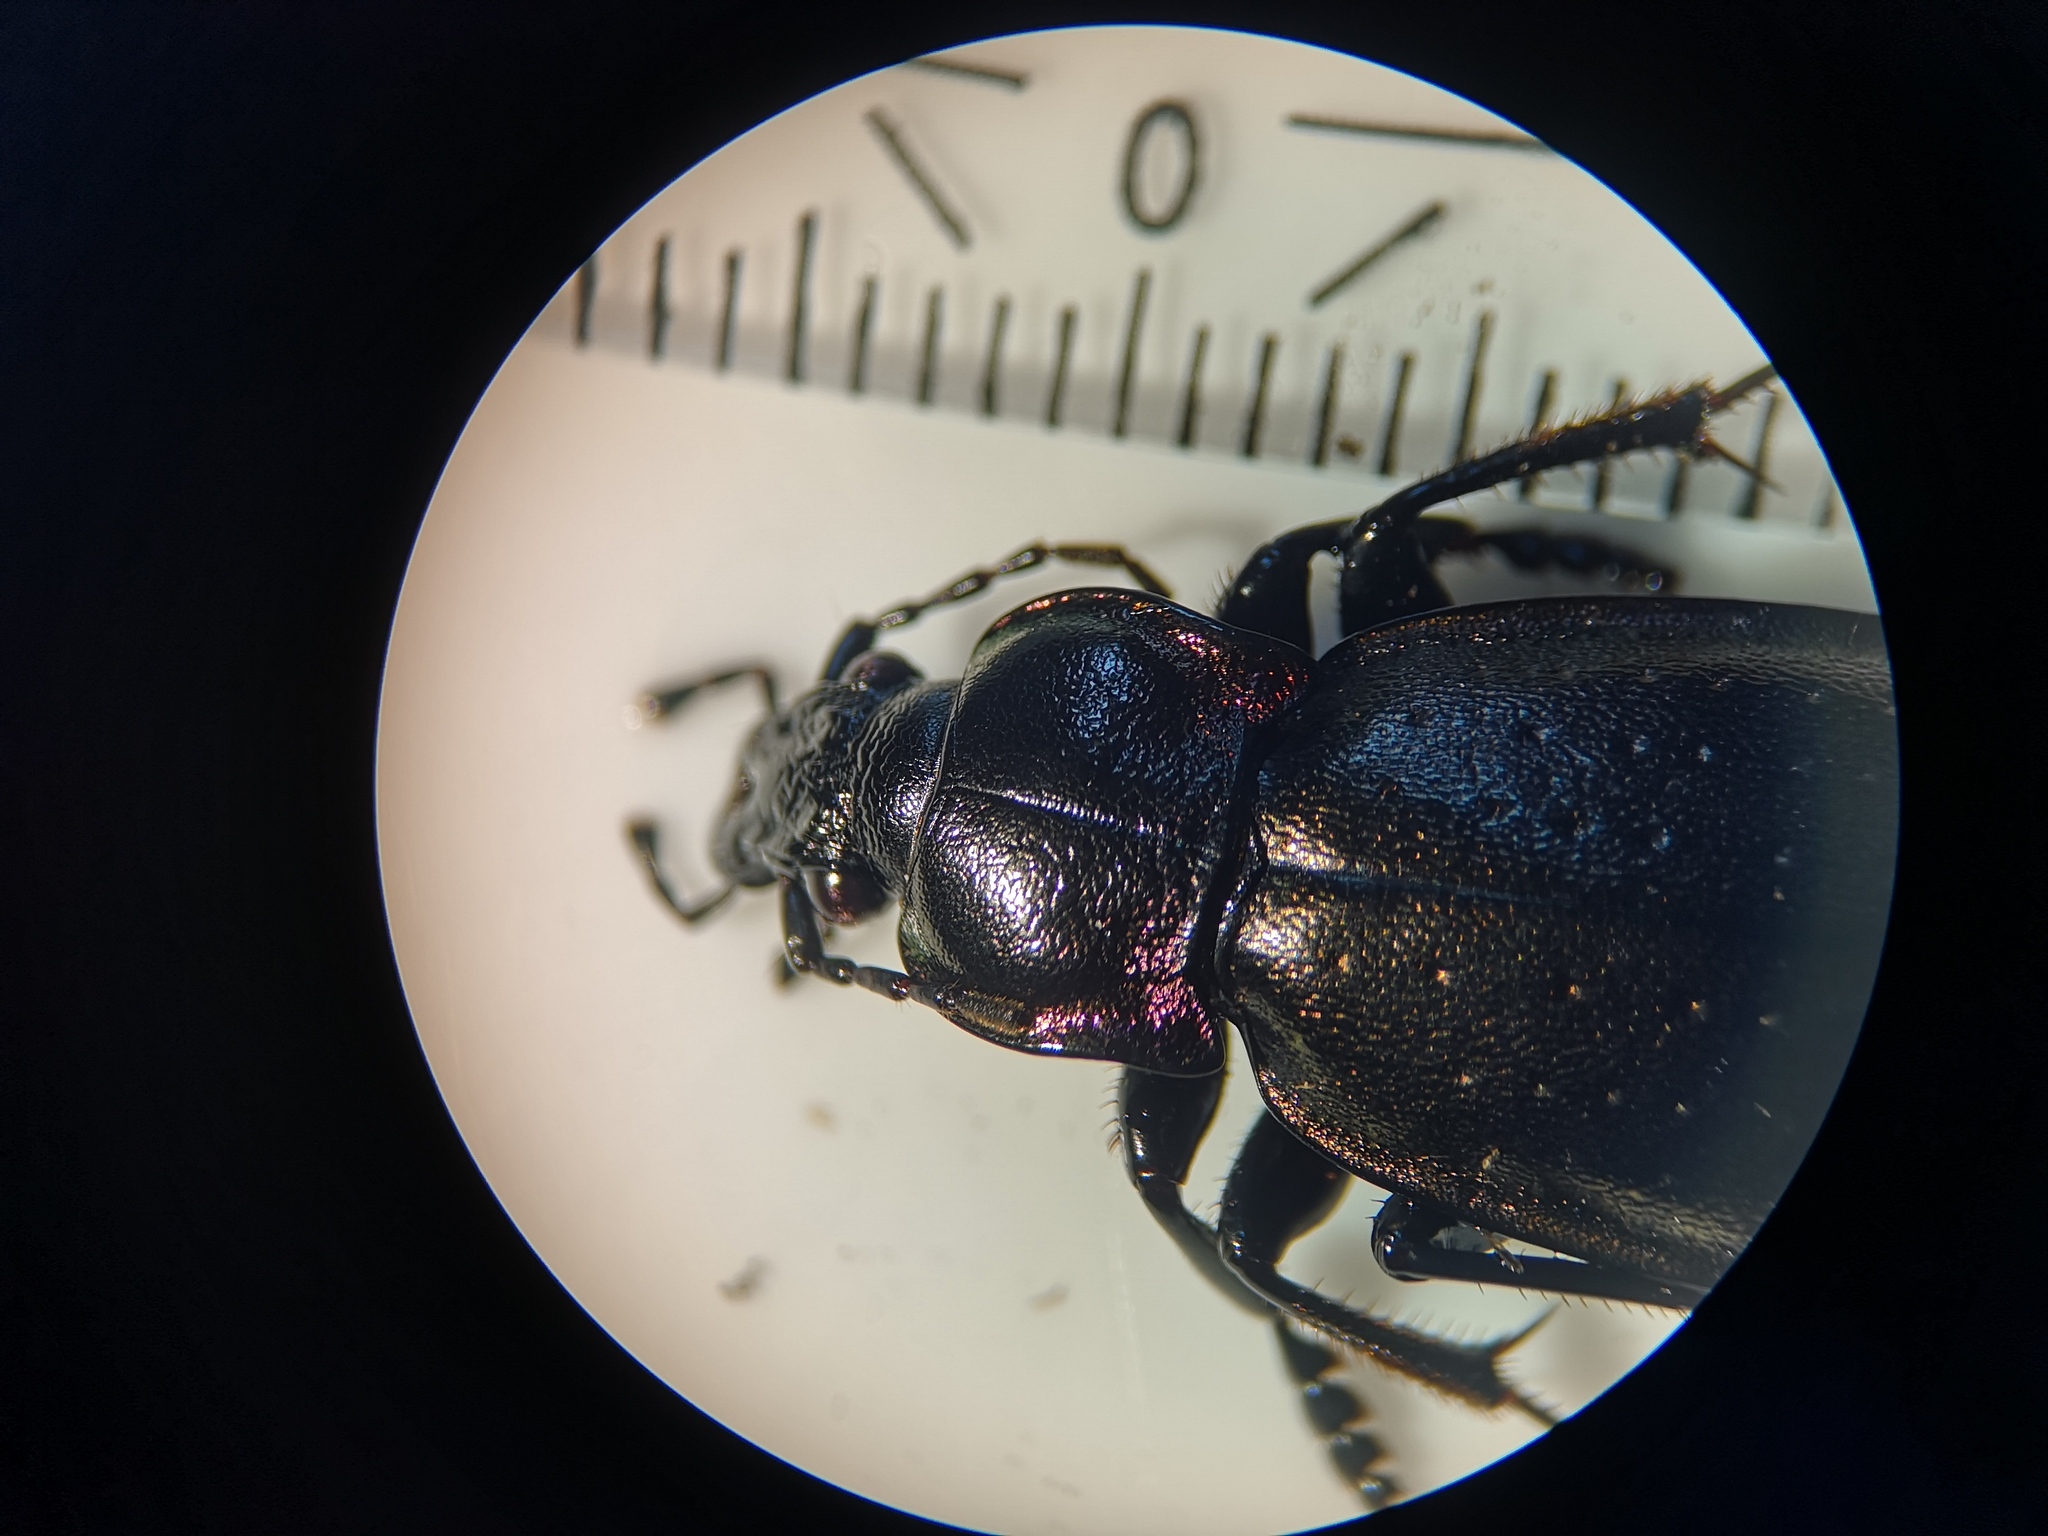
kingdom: Animalia
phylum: Arthropoda
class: Insecta
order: Coleoptera
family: Carabidae
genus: Carabus
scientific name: Carabus nemoralis
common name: European ground beetle
